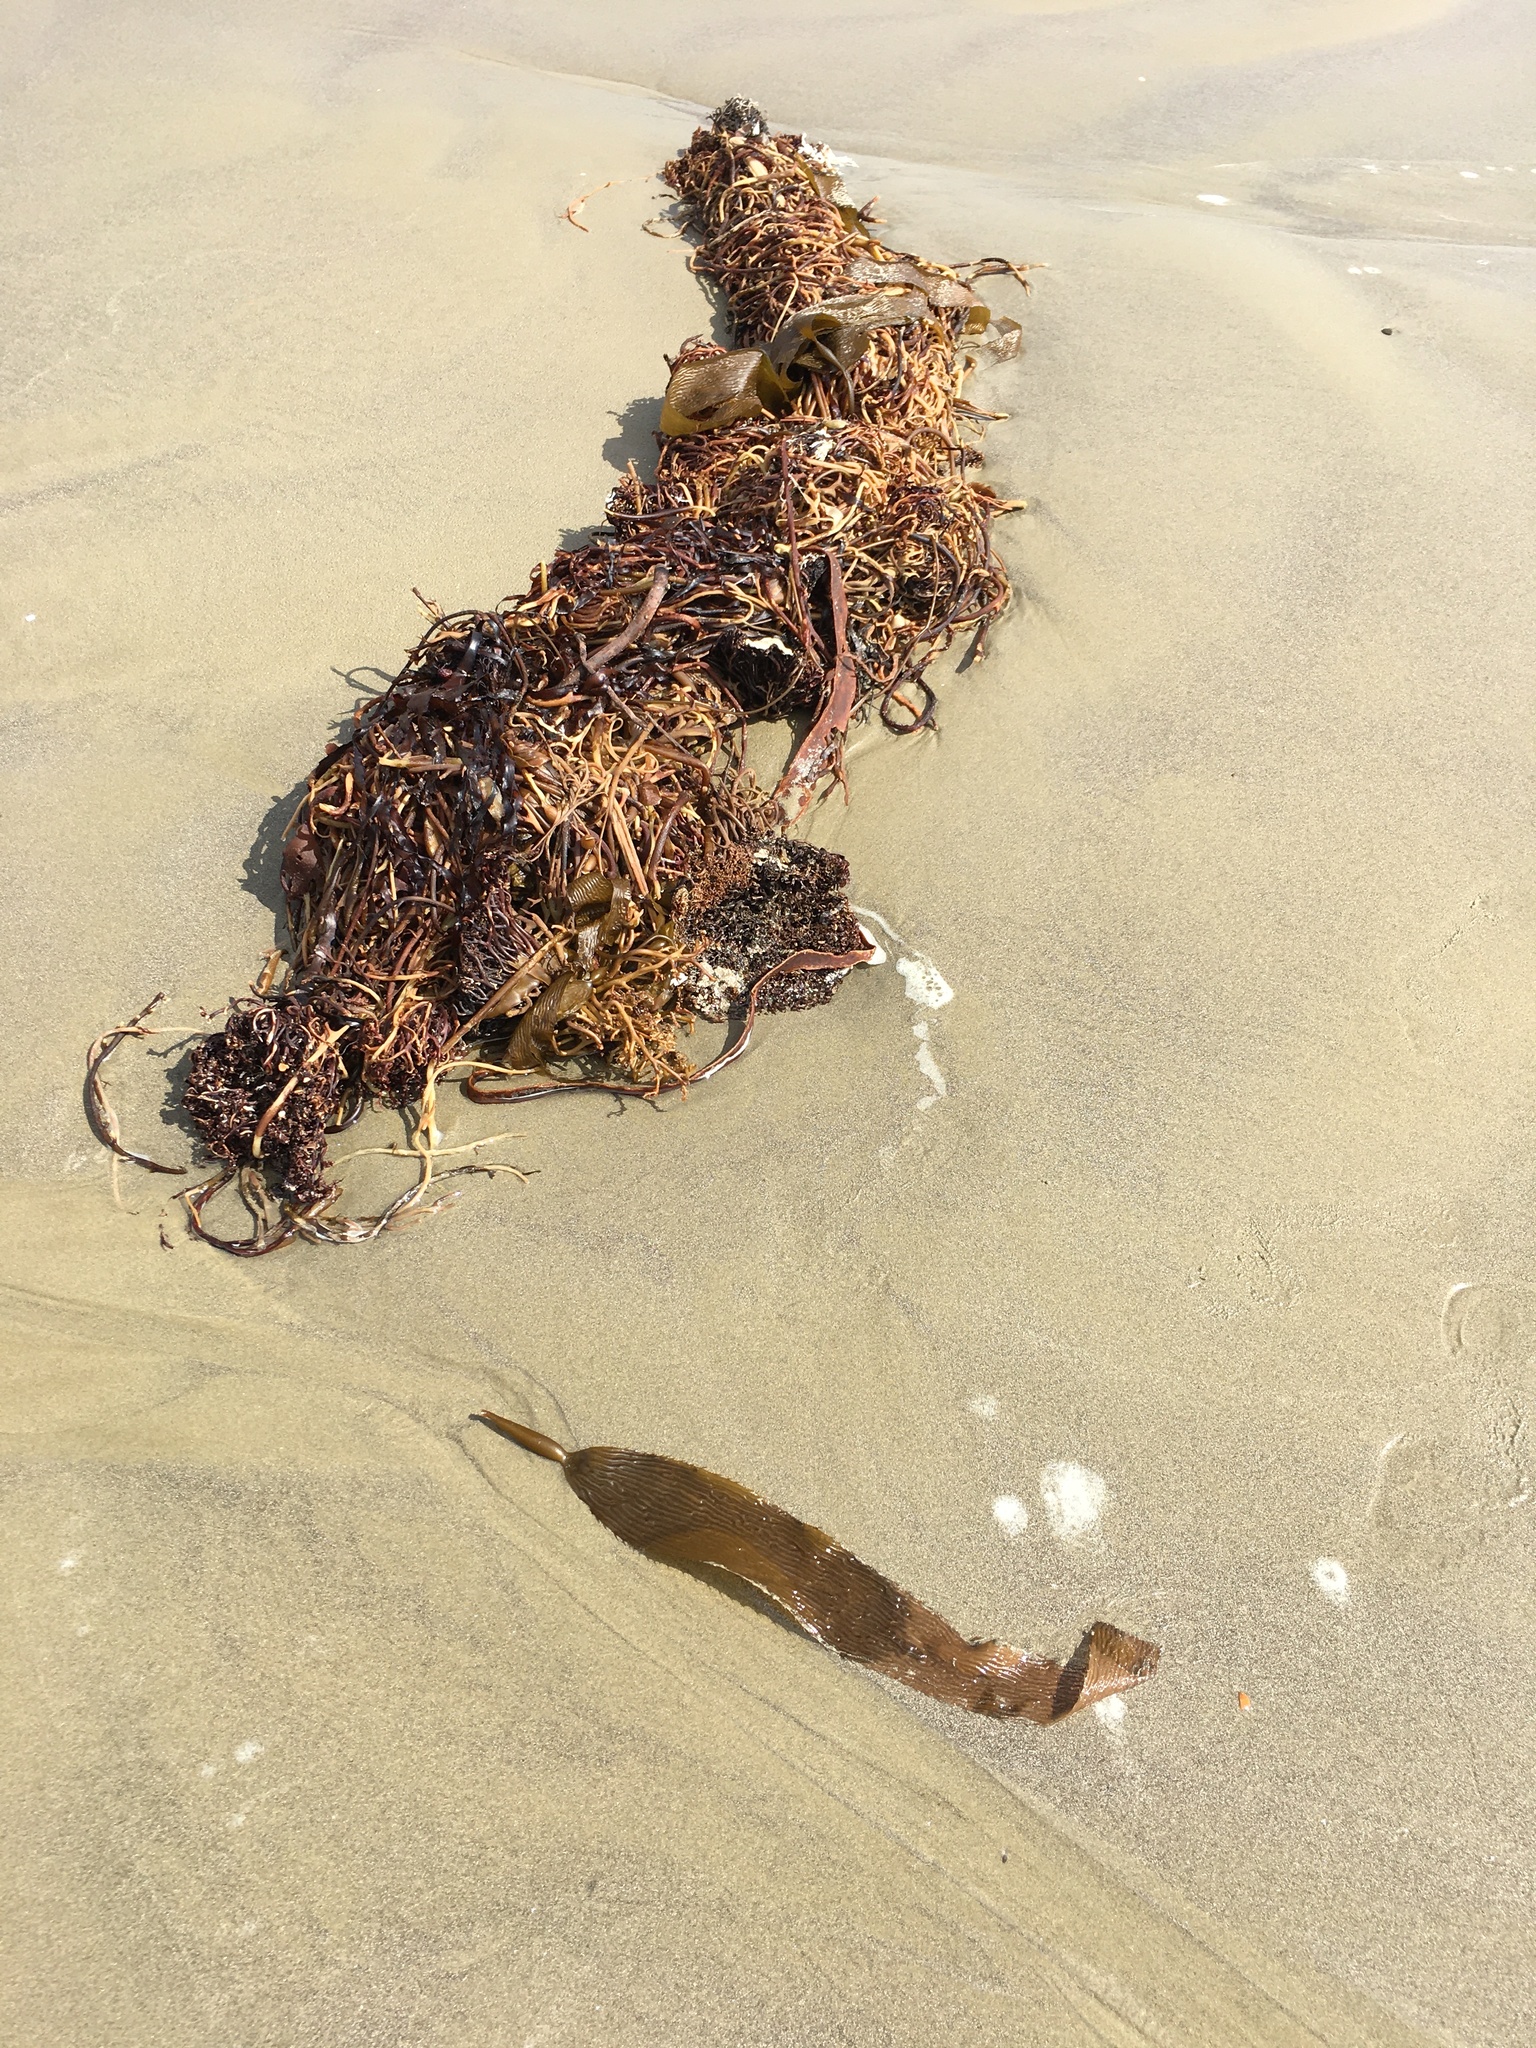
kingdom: Chromista
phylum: Ochrophyta
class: Phaeophyceae
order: Laminariales
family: Laminariaceae
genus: Macrocystis
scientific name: Macrocystis pyrifera
